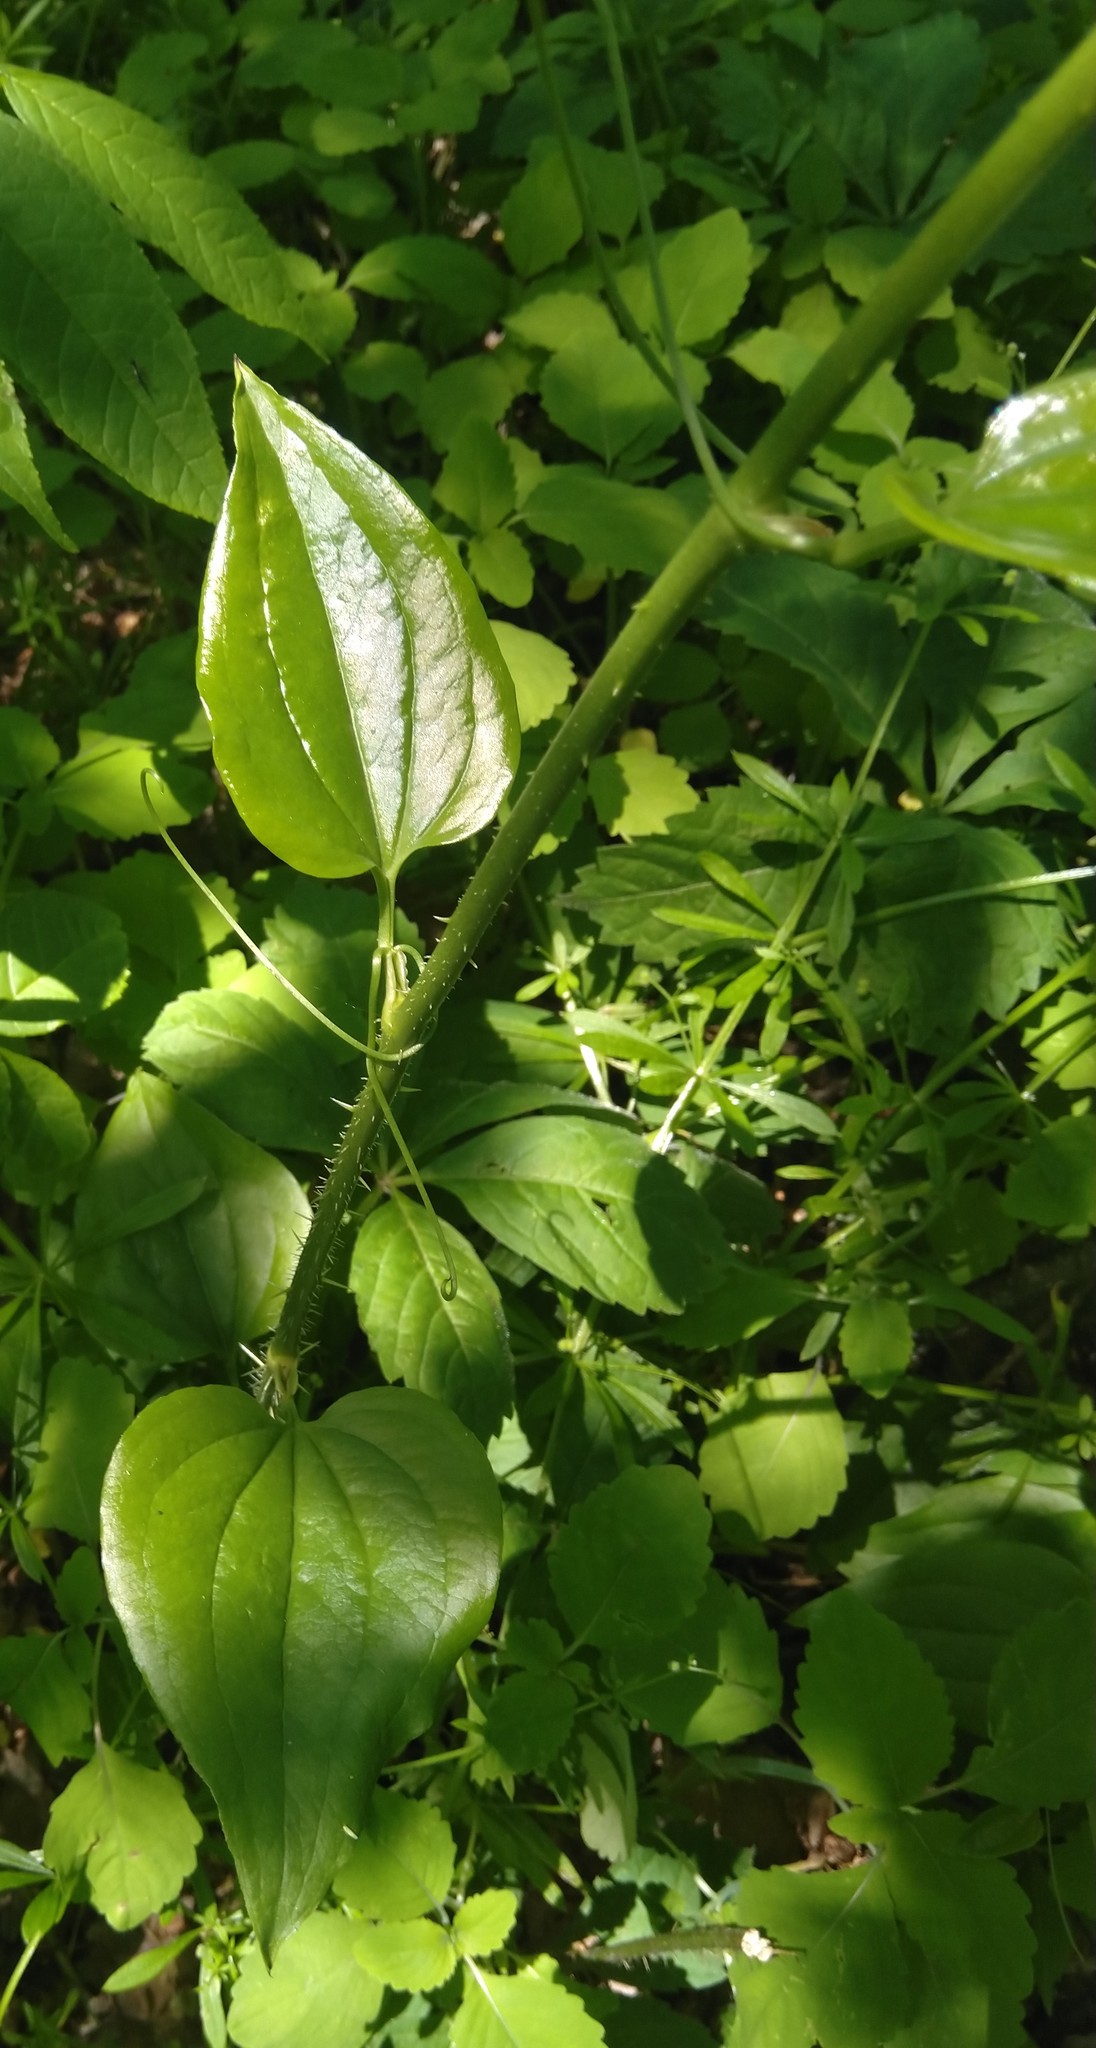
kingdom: Plantae
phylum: Tracheophyta
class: Liliopsida
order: Liliales
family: Smilacaceae
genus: Smilax
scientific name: Smilax tamnoides
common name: Hellfetter
